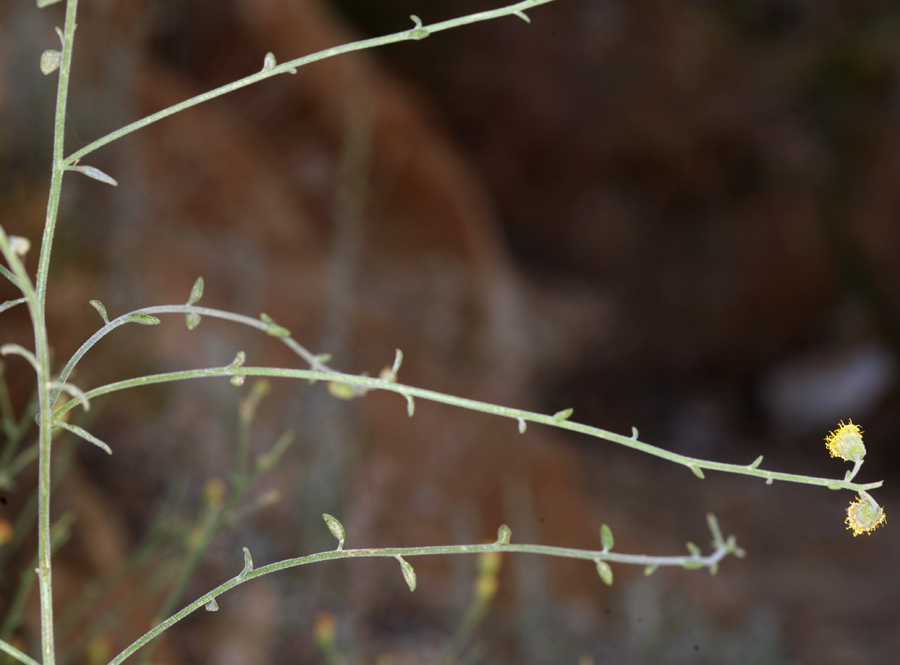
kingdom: Plantae
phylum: Tracheophyta
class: Magnoliopsida
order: Asterales
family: Asteraceae
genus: Laphamia
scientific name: Laphamia megalocephala
